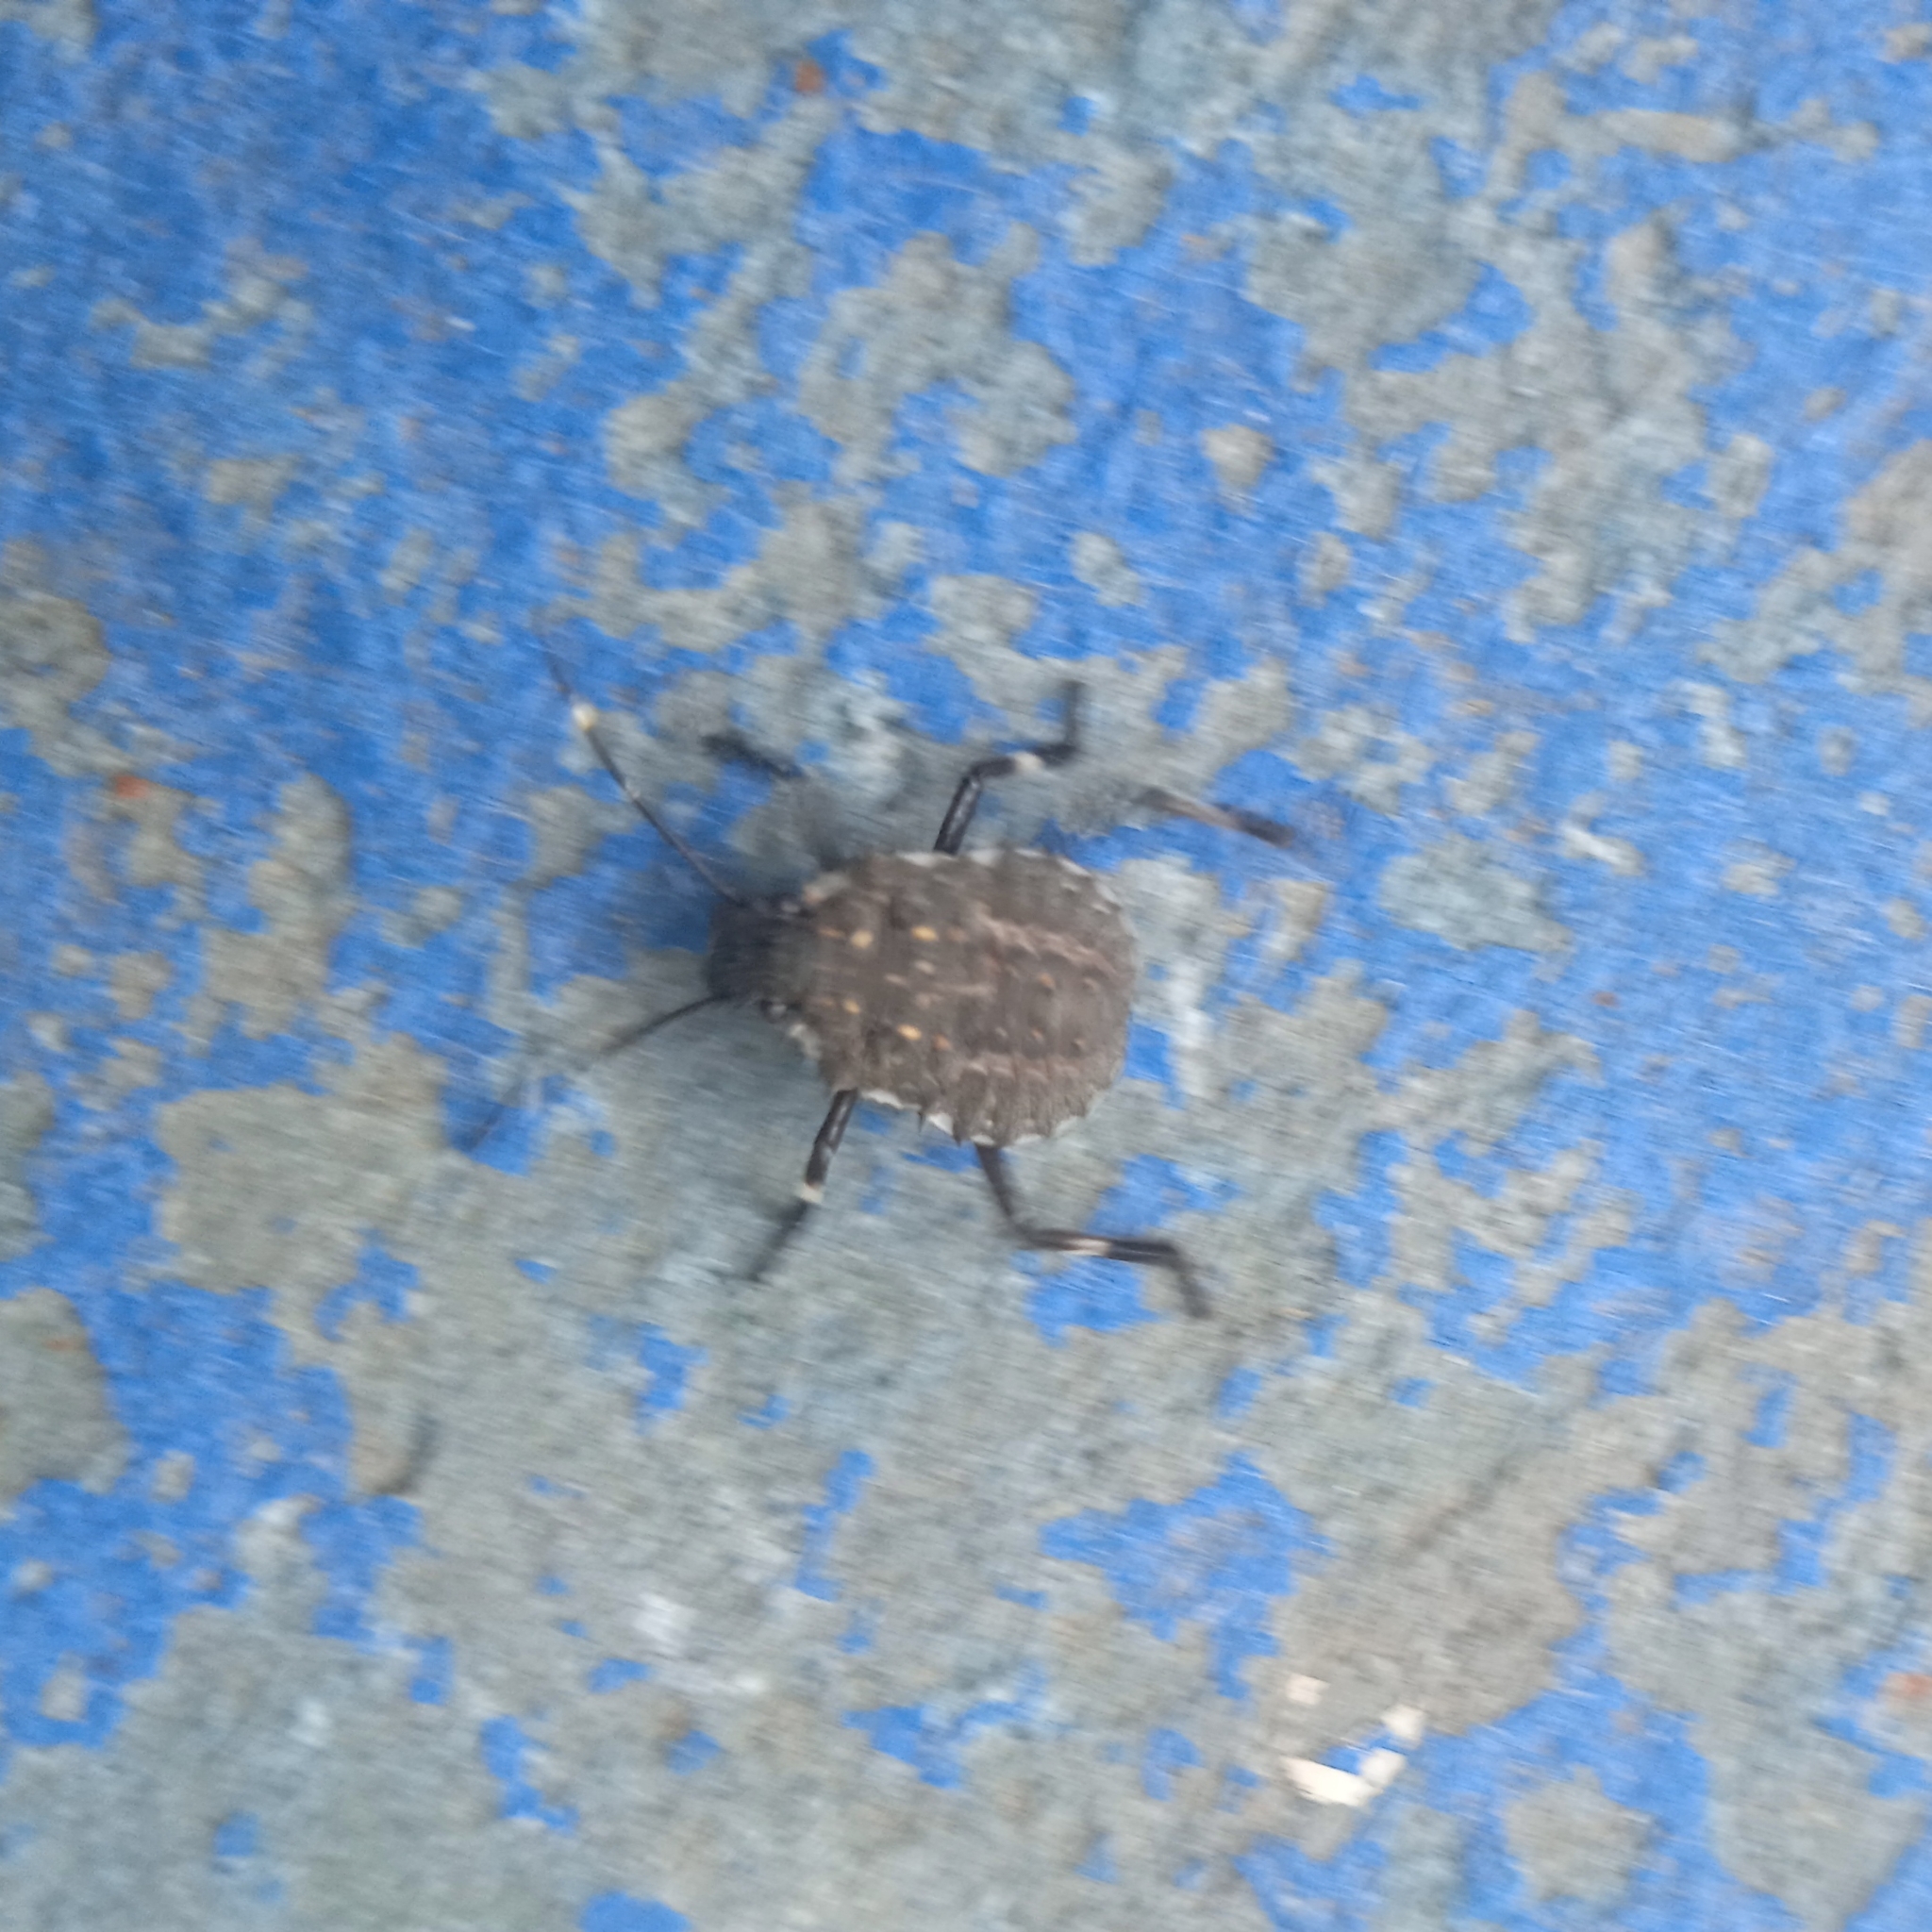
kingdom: Animalia
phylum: Arthropoda
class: Insecta
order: Hemiptera
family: Pentatomidae
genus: Halyomorpha
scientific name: Halyomorpha halys
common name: Brown marmorated stink bug
